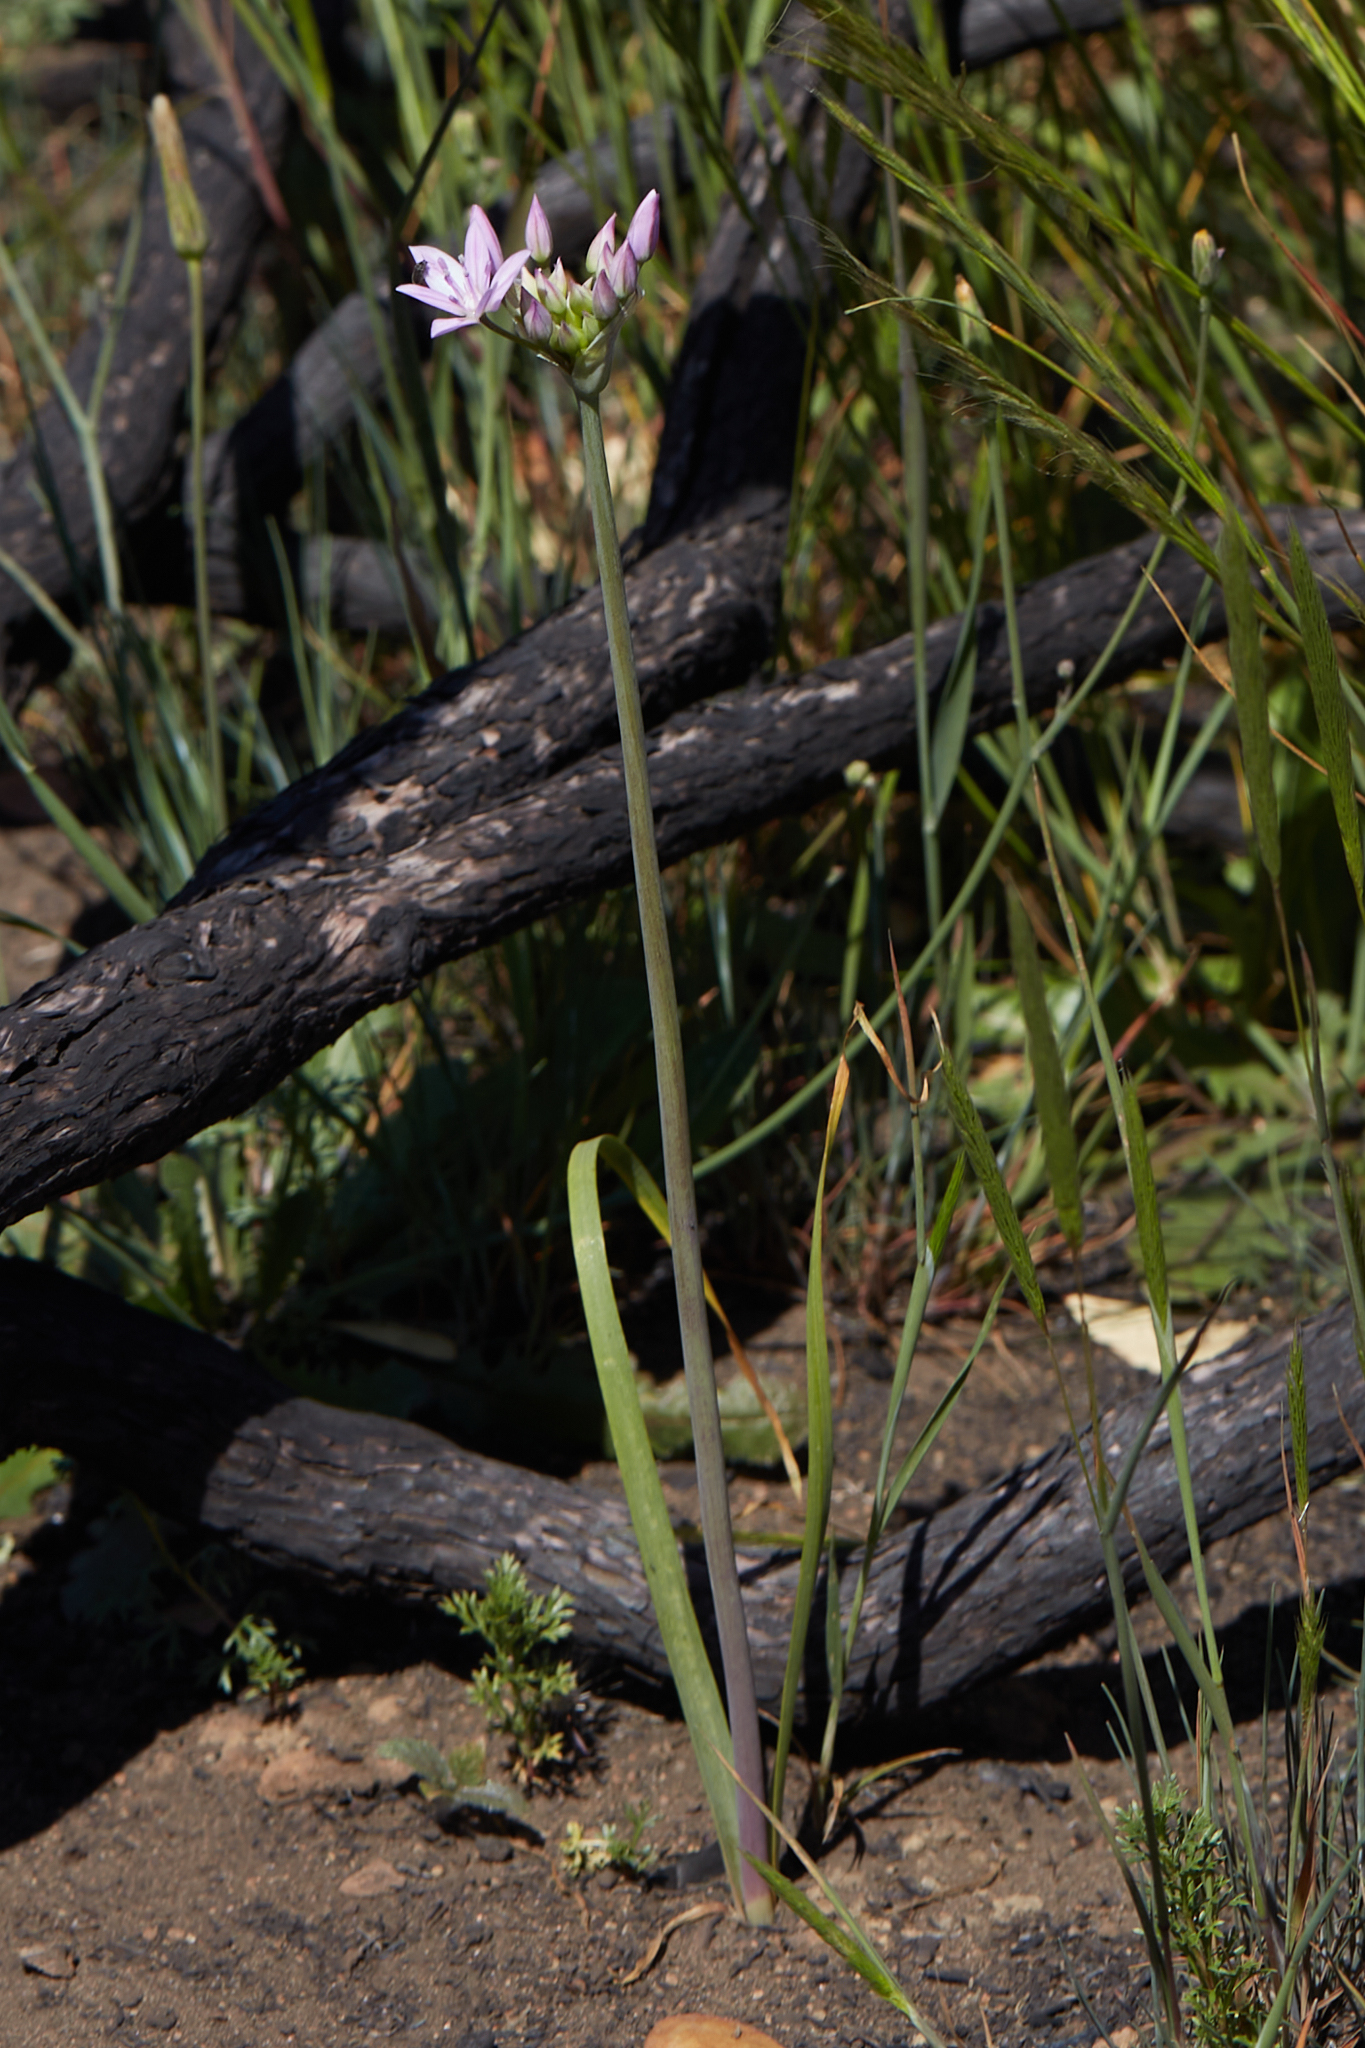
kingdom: Plantae
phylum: Tracheophyta
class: Liliopsida
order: Asparagales
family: Amaryllidaceae
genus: Allium
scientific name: Allium unifolium
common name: American garlic
